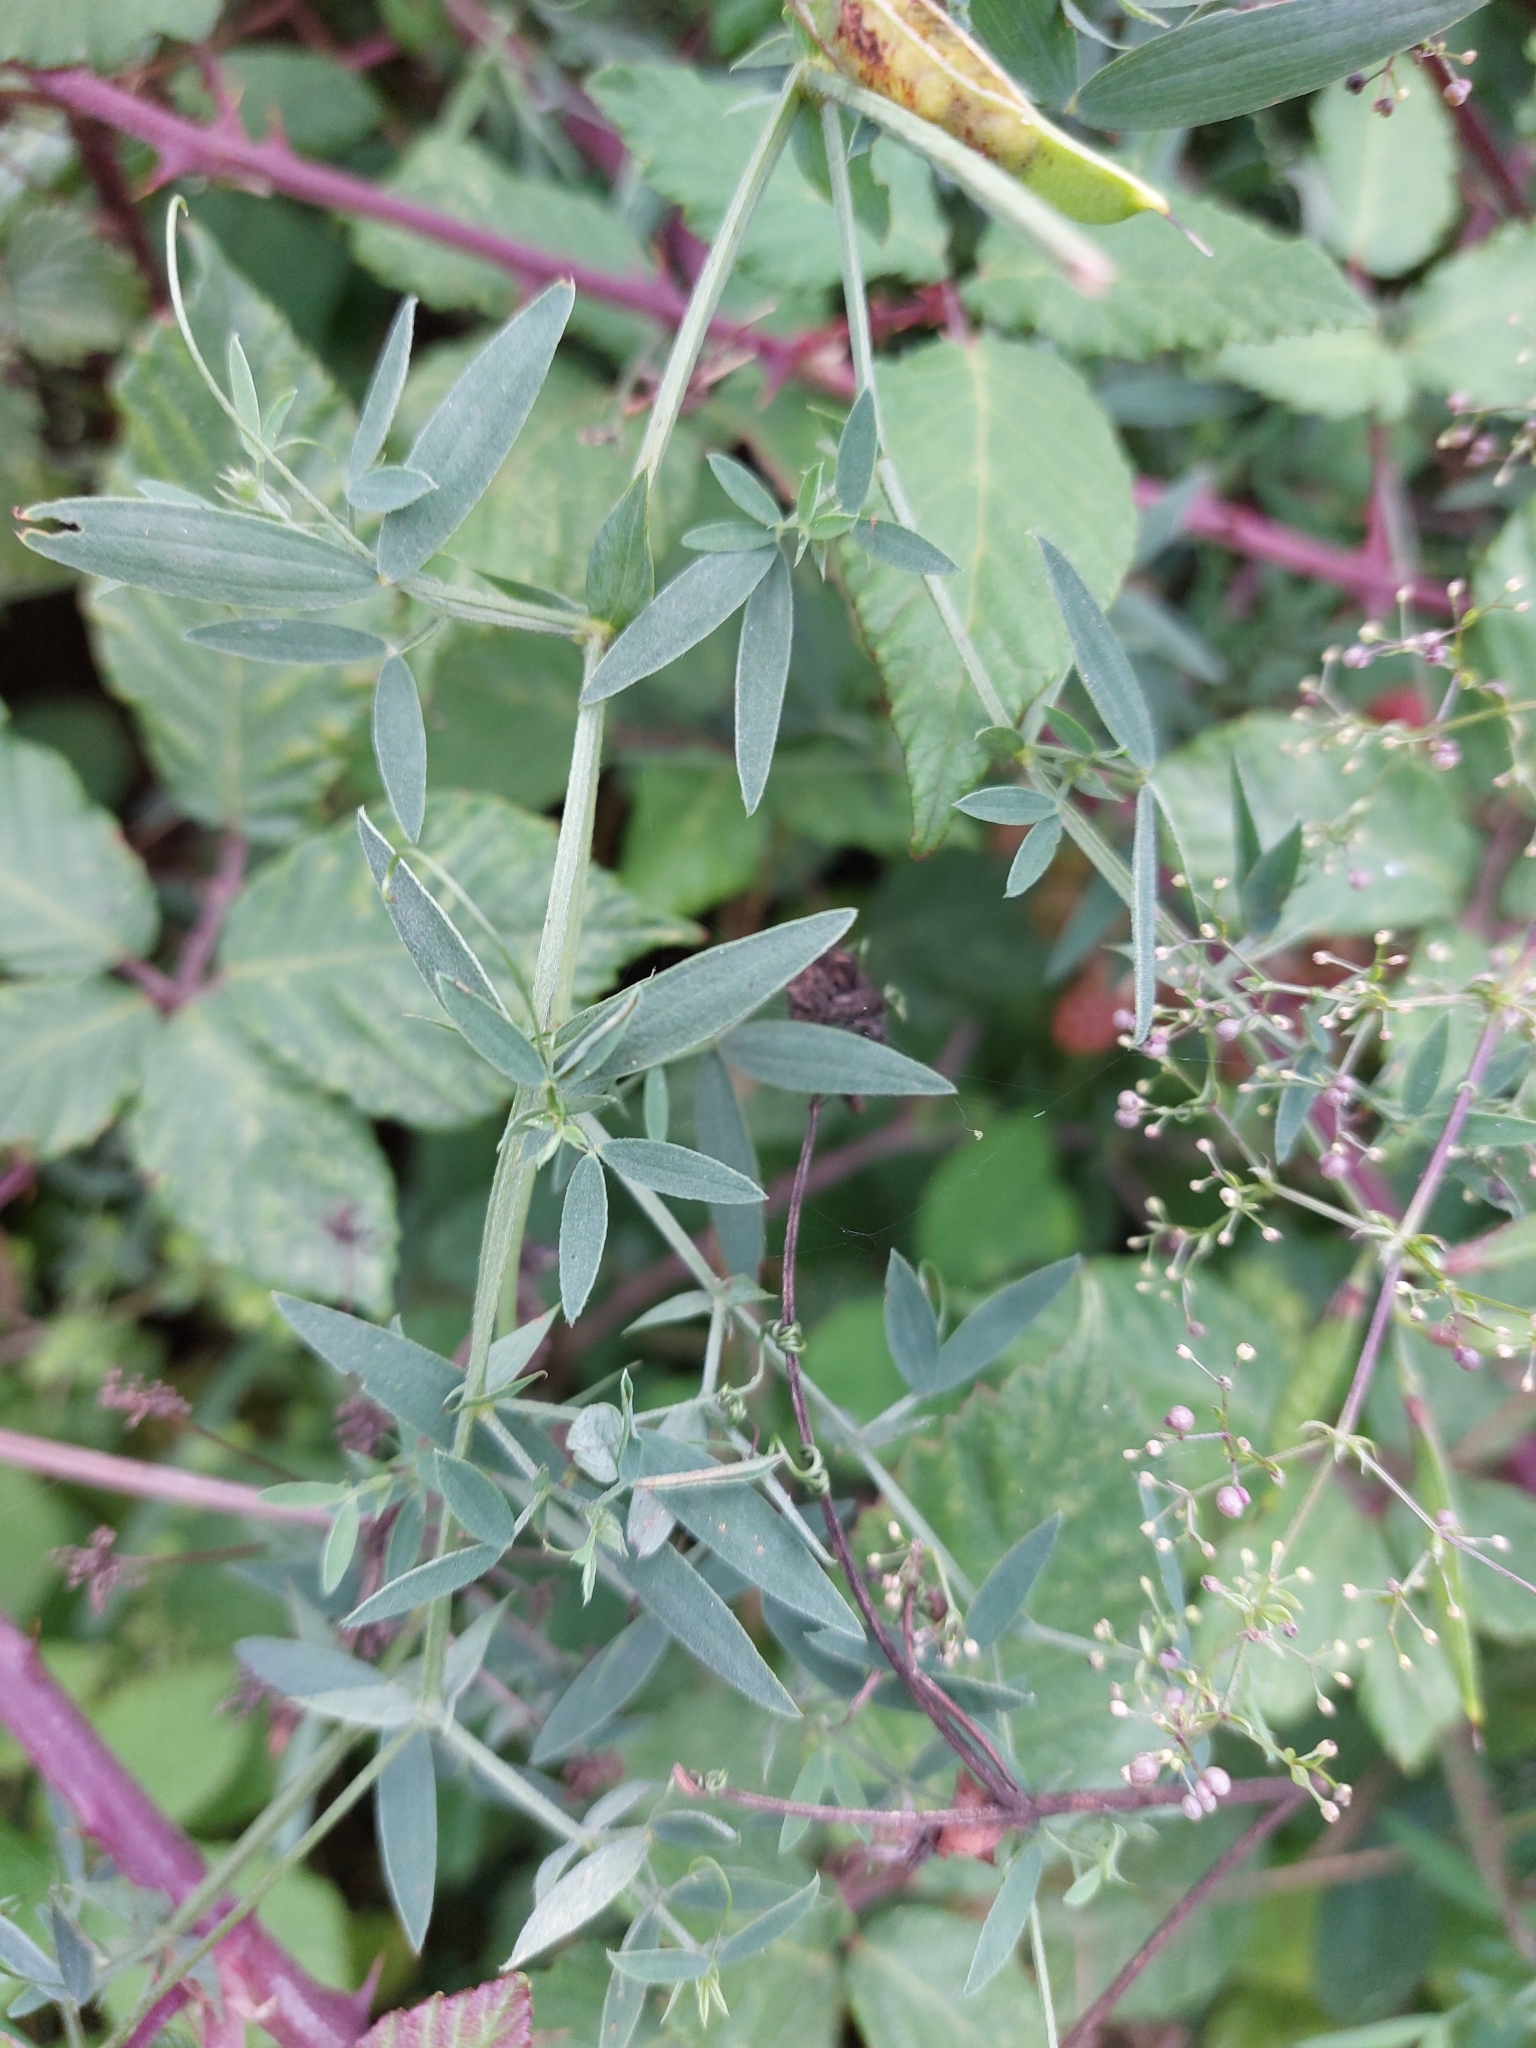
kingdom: Plantae
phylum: Tracheophyta
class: Magnoliopsida
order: Fabales
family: Fabaceae
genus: Lathyrus
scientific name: Lathyrus pratensis
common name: Meadow vetchling
